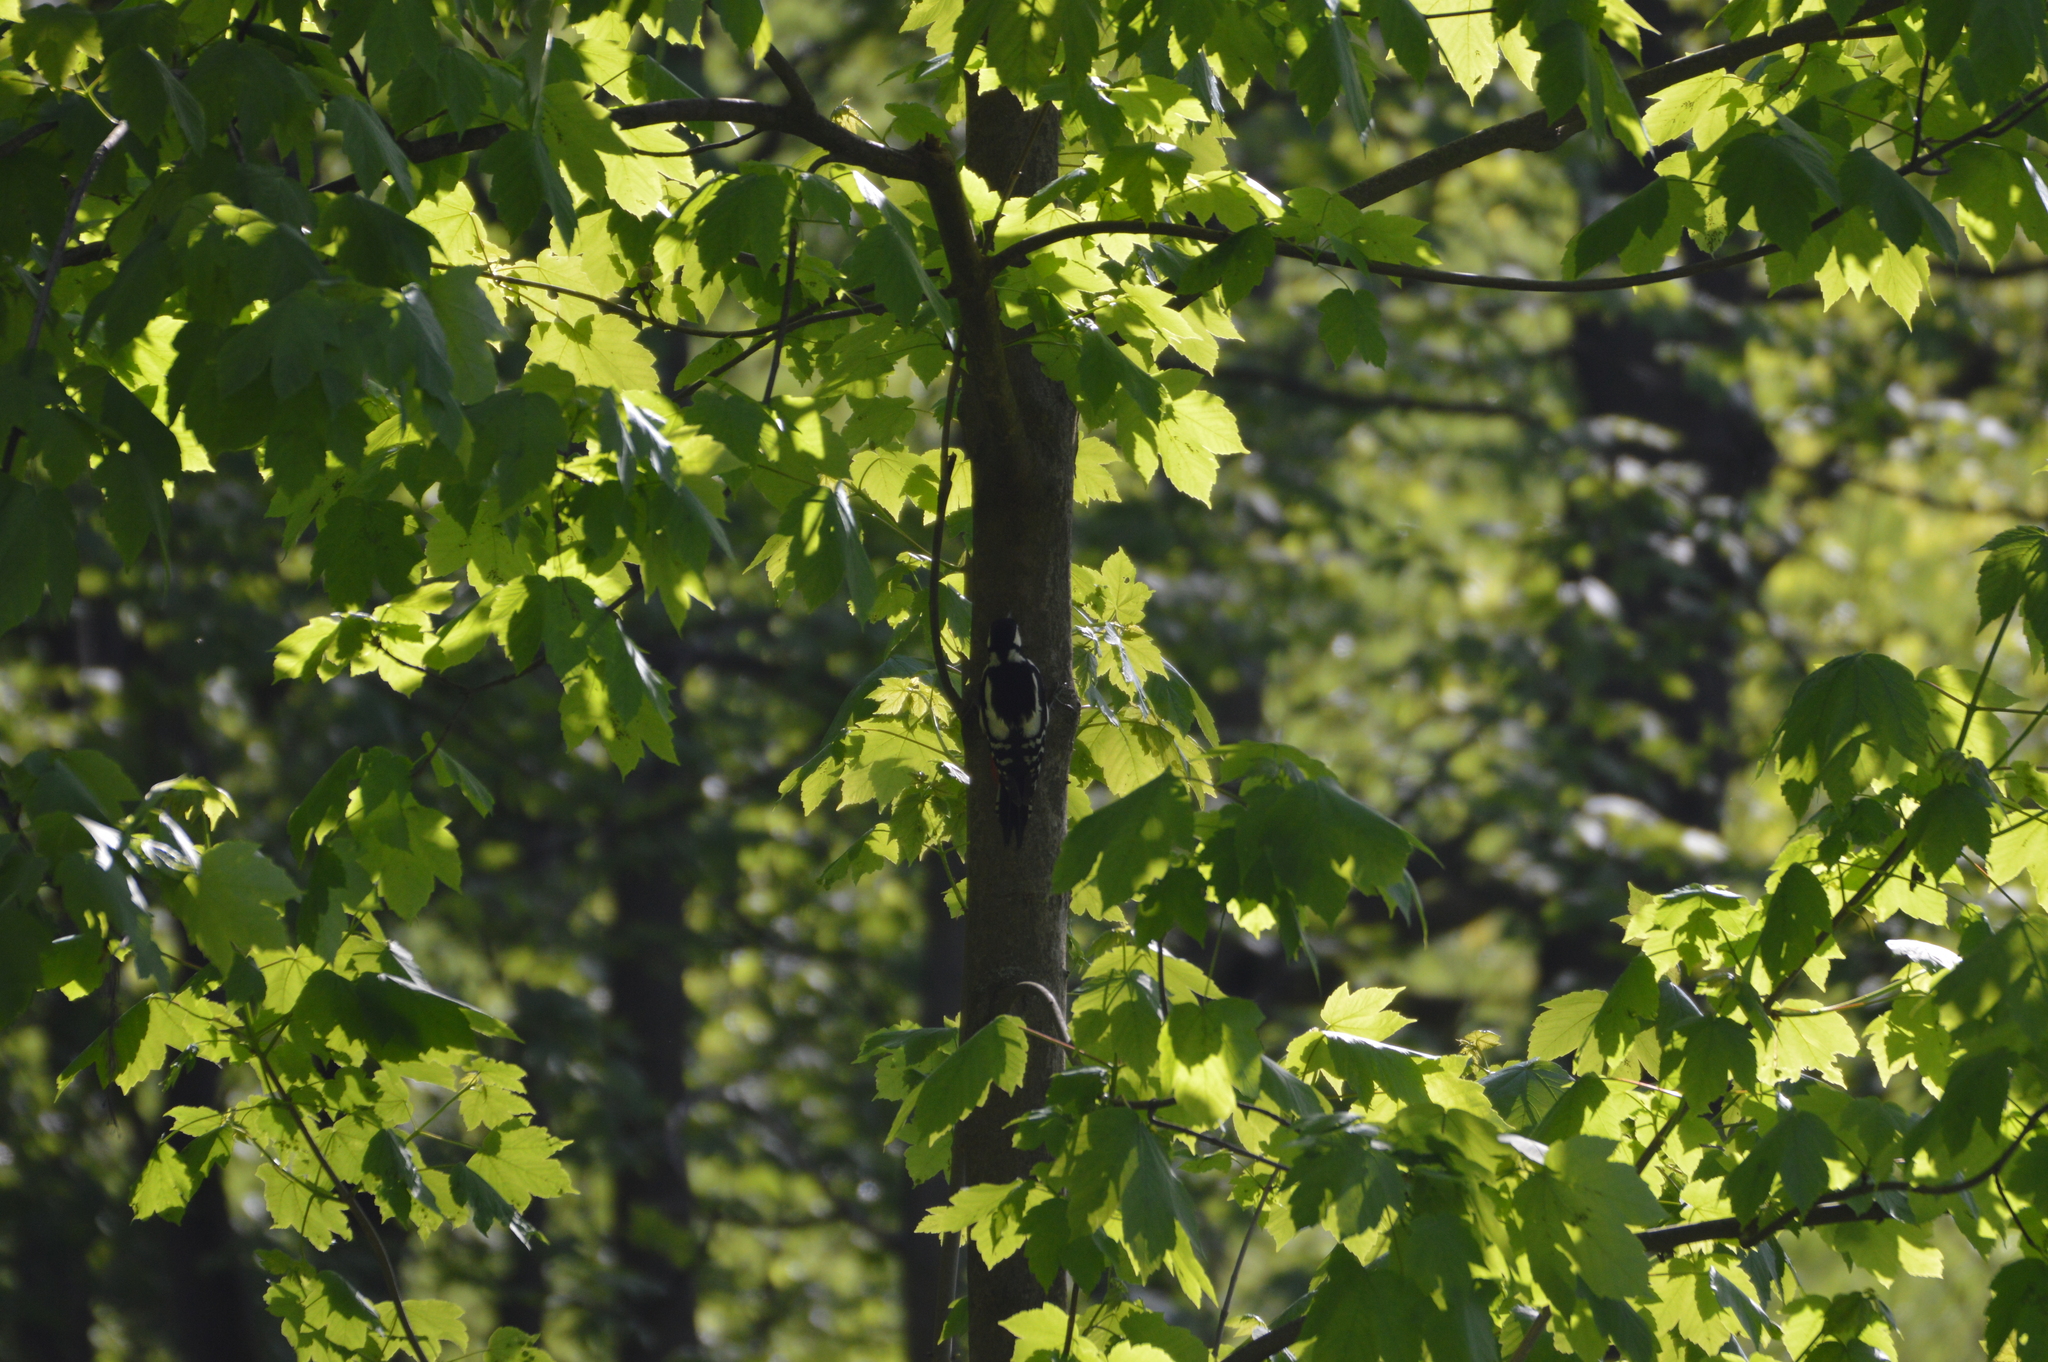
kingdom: Animalia
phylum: Chordata
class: Aves
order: Piciformes
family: Picidae
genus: Dendrocopos
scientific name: Dendrocopos major
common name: Great spotted woodpecker
